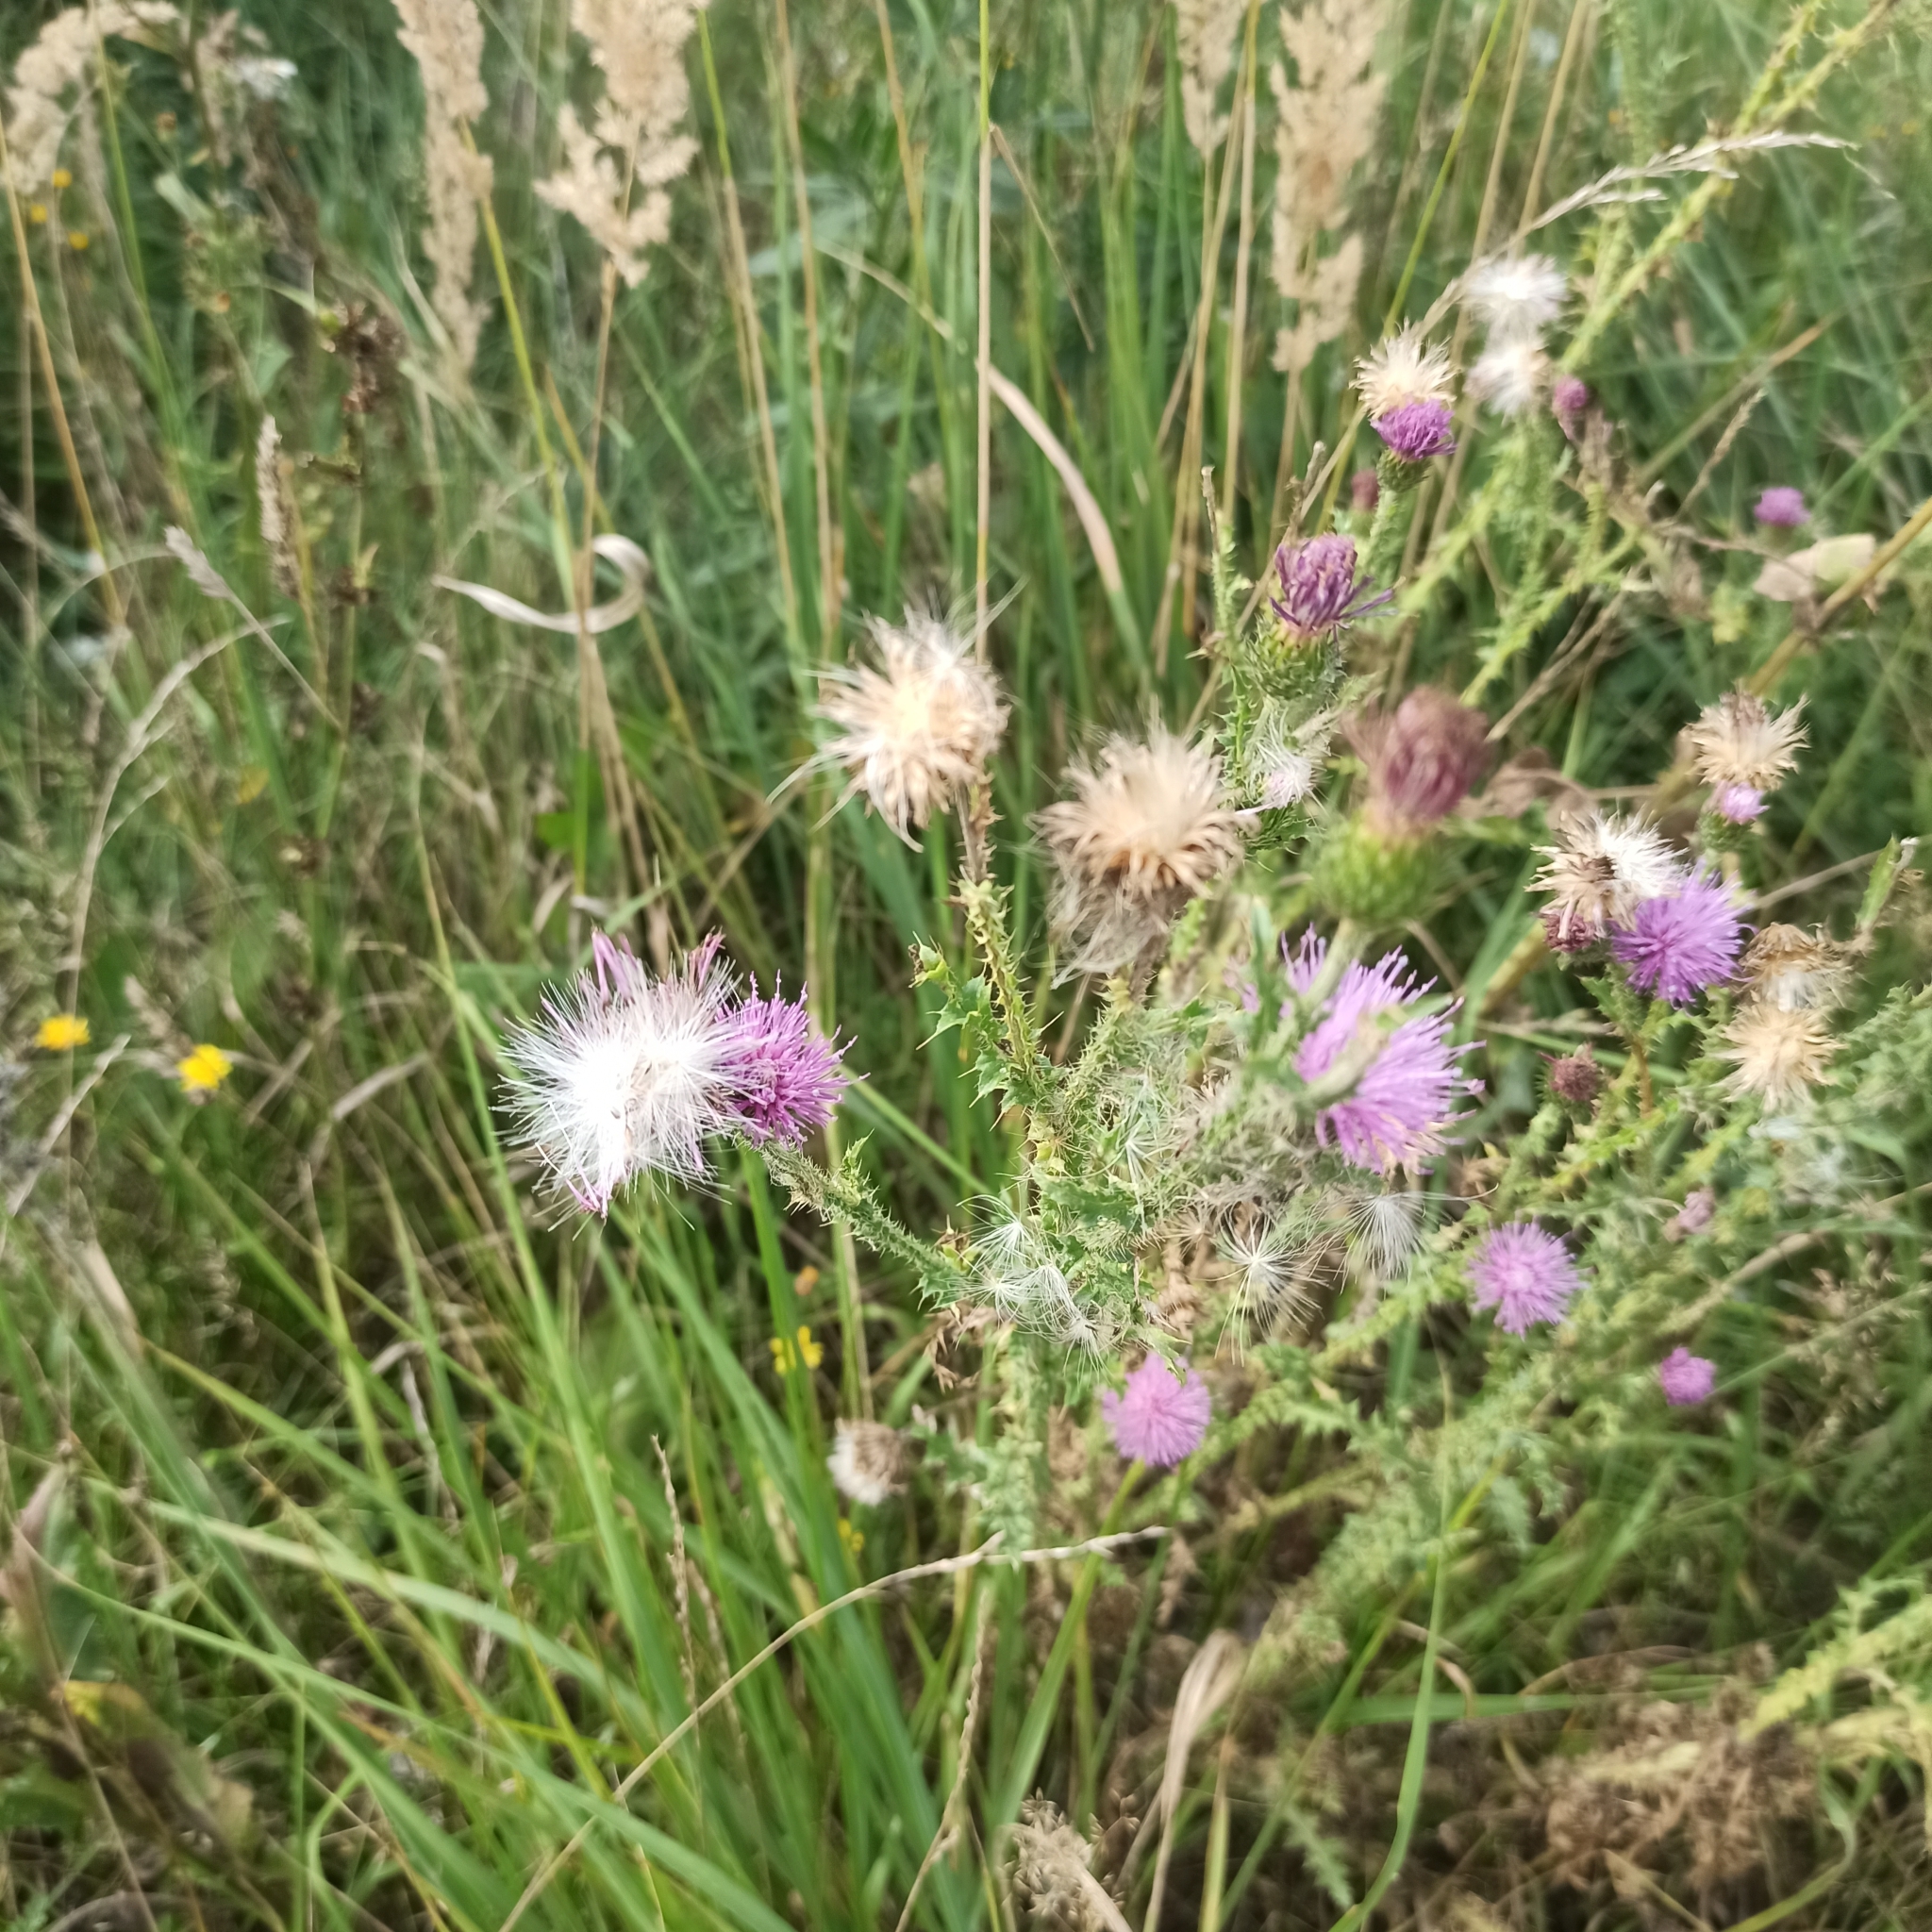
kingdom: Plantae
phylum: Tracheophyta
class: Magnoliopsida
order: Asterales
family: Asteraceae
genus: Carduus
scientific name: Carduus acanthoides
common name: Plumeless thistle
